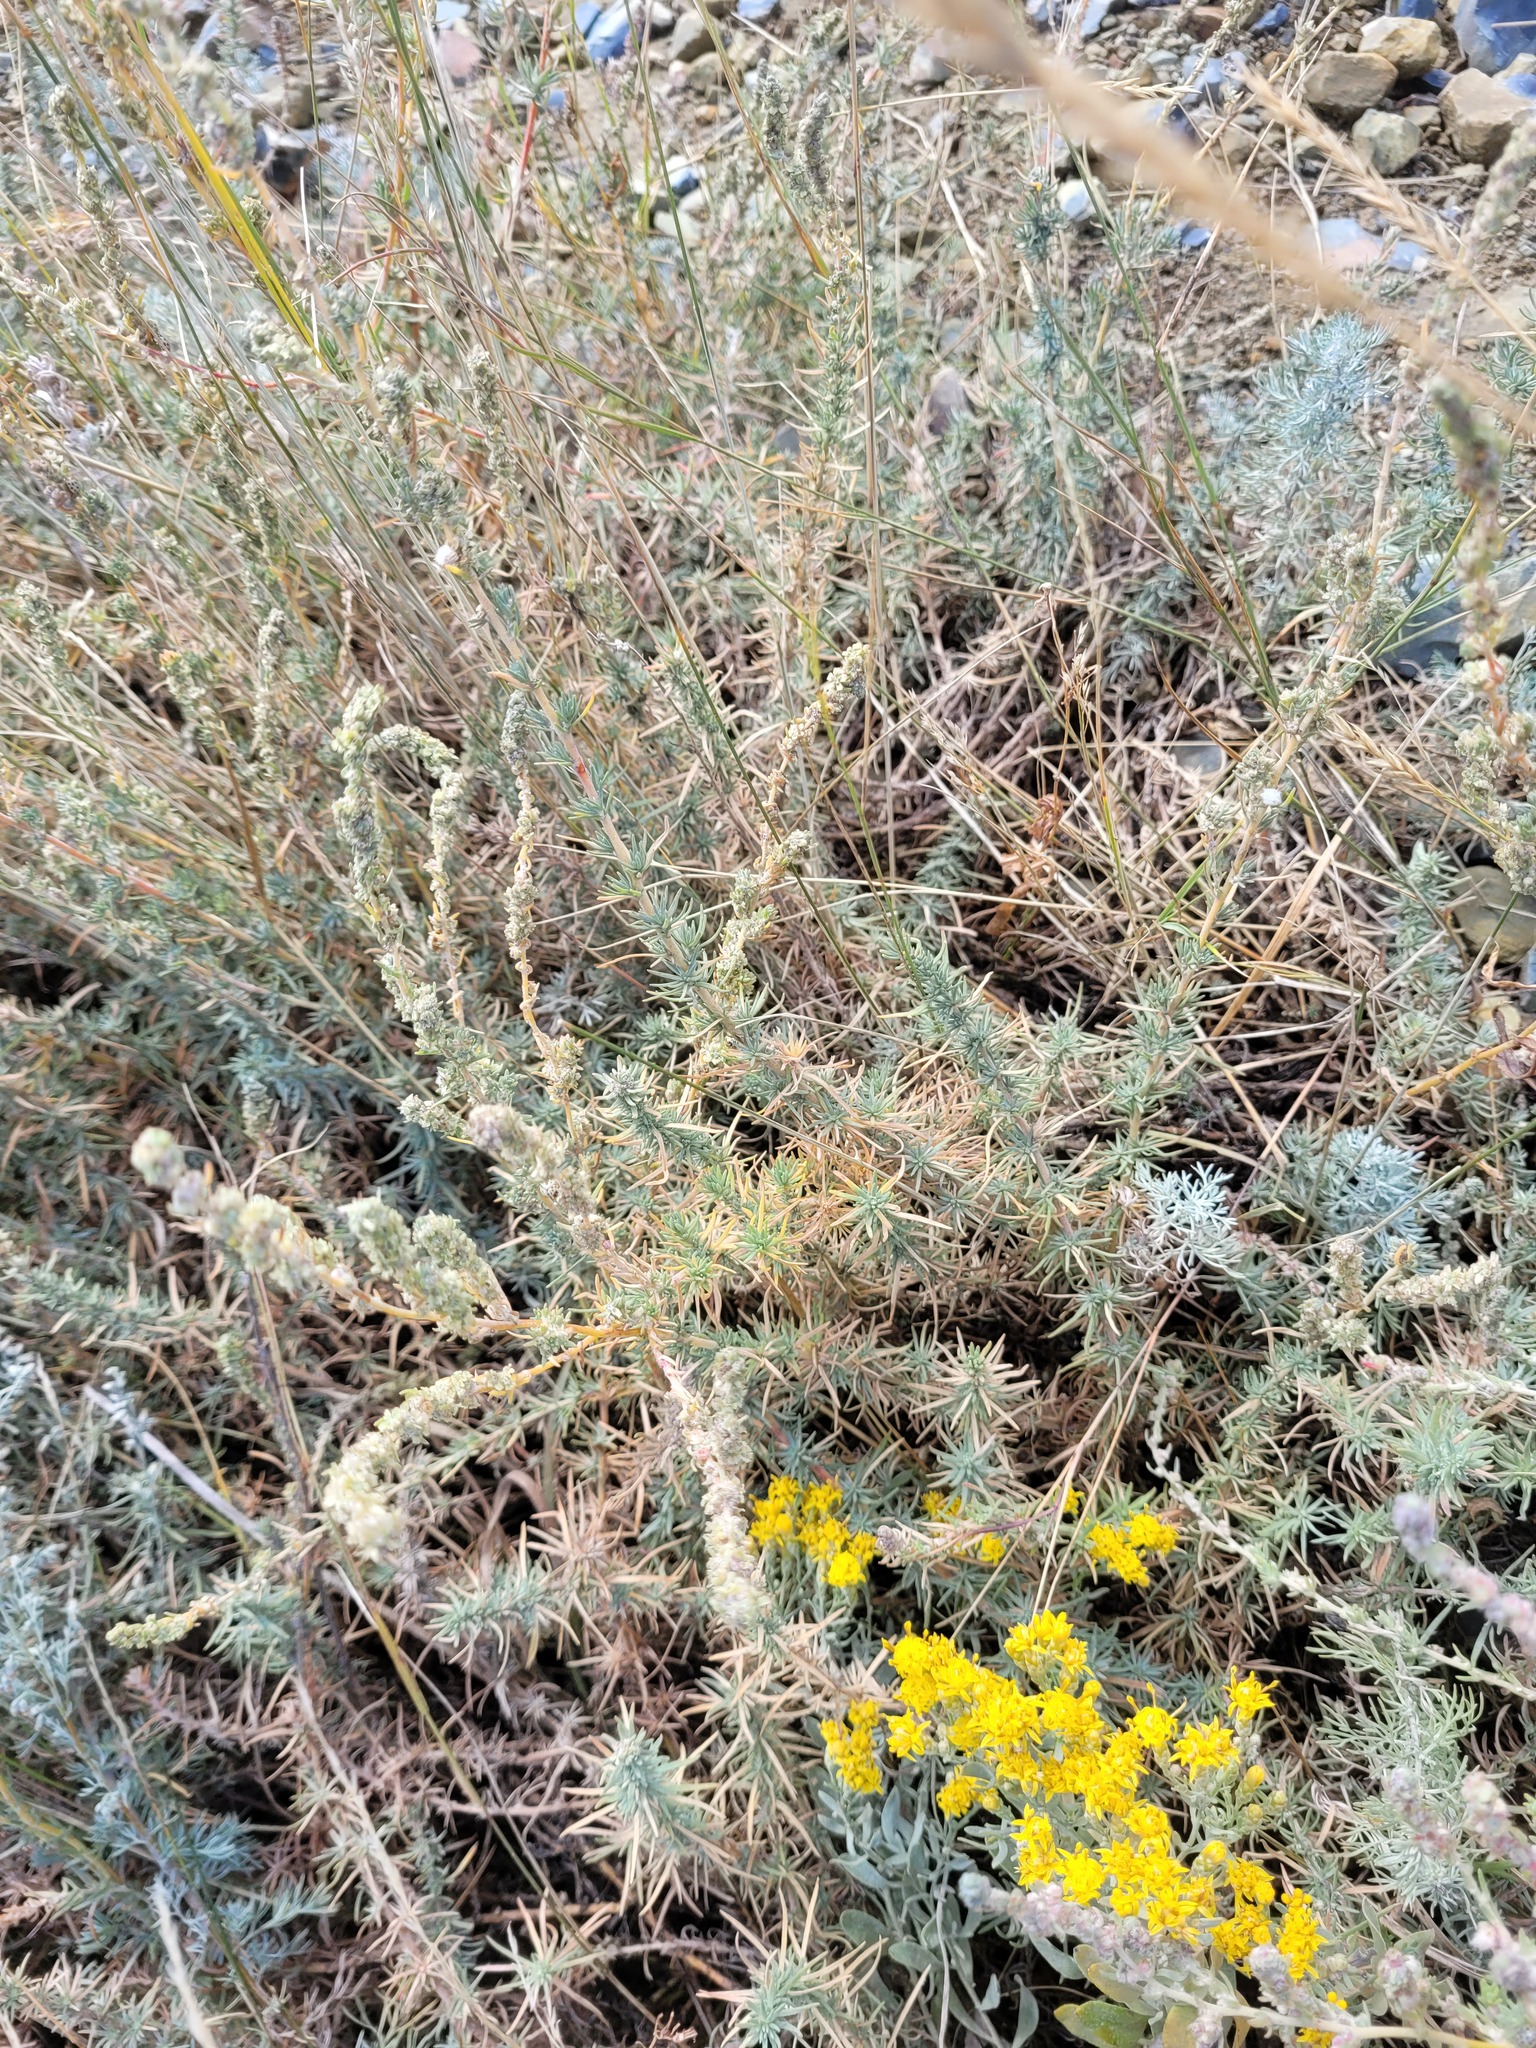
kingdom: Plantae
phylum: Tracheophyta
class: Magnoliopsida
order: Caryophyllales
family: Amaranthaceae
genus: Bassia
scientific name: Bassia prostrata
